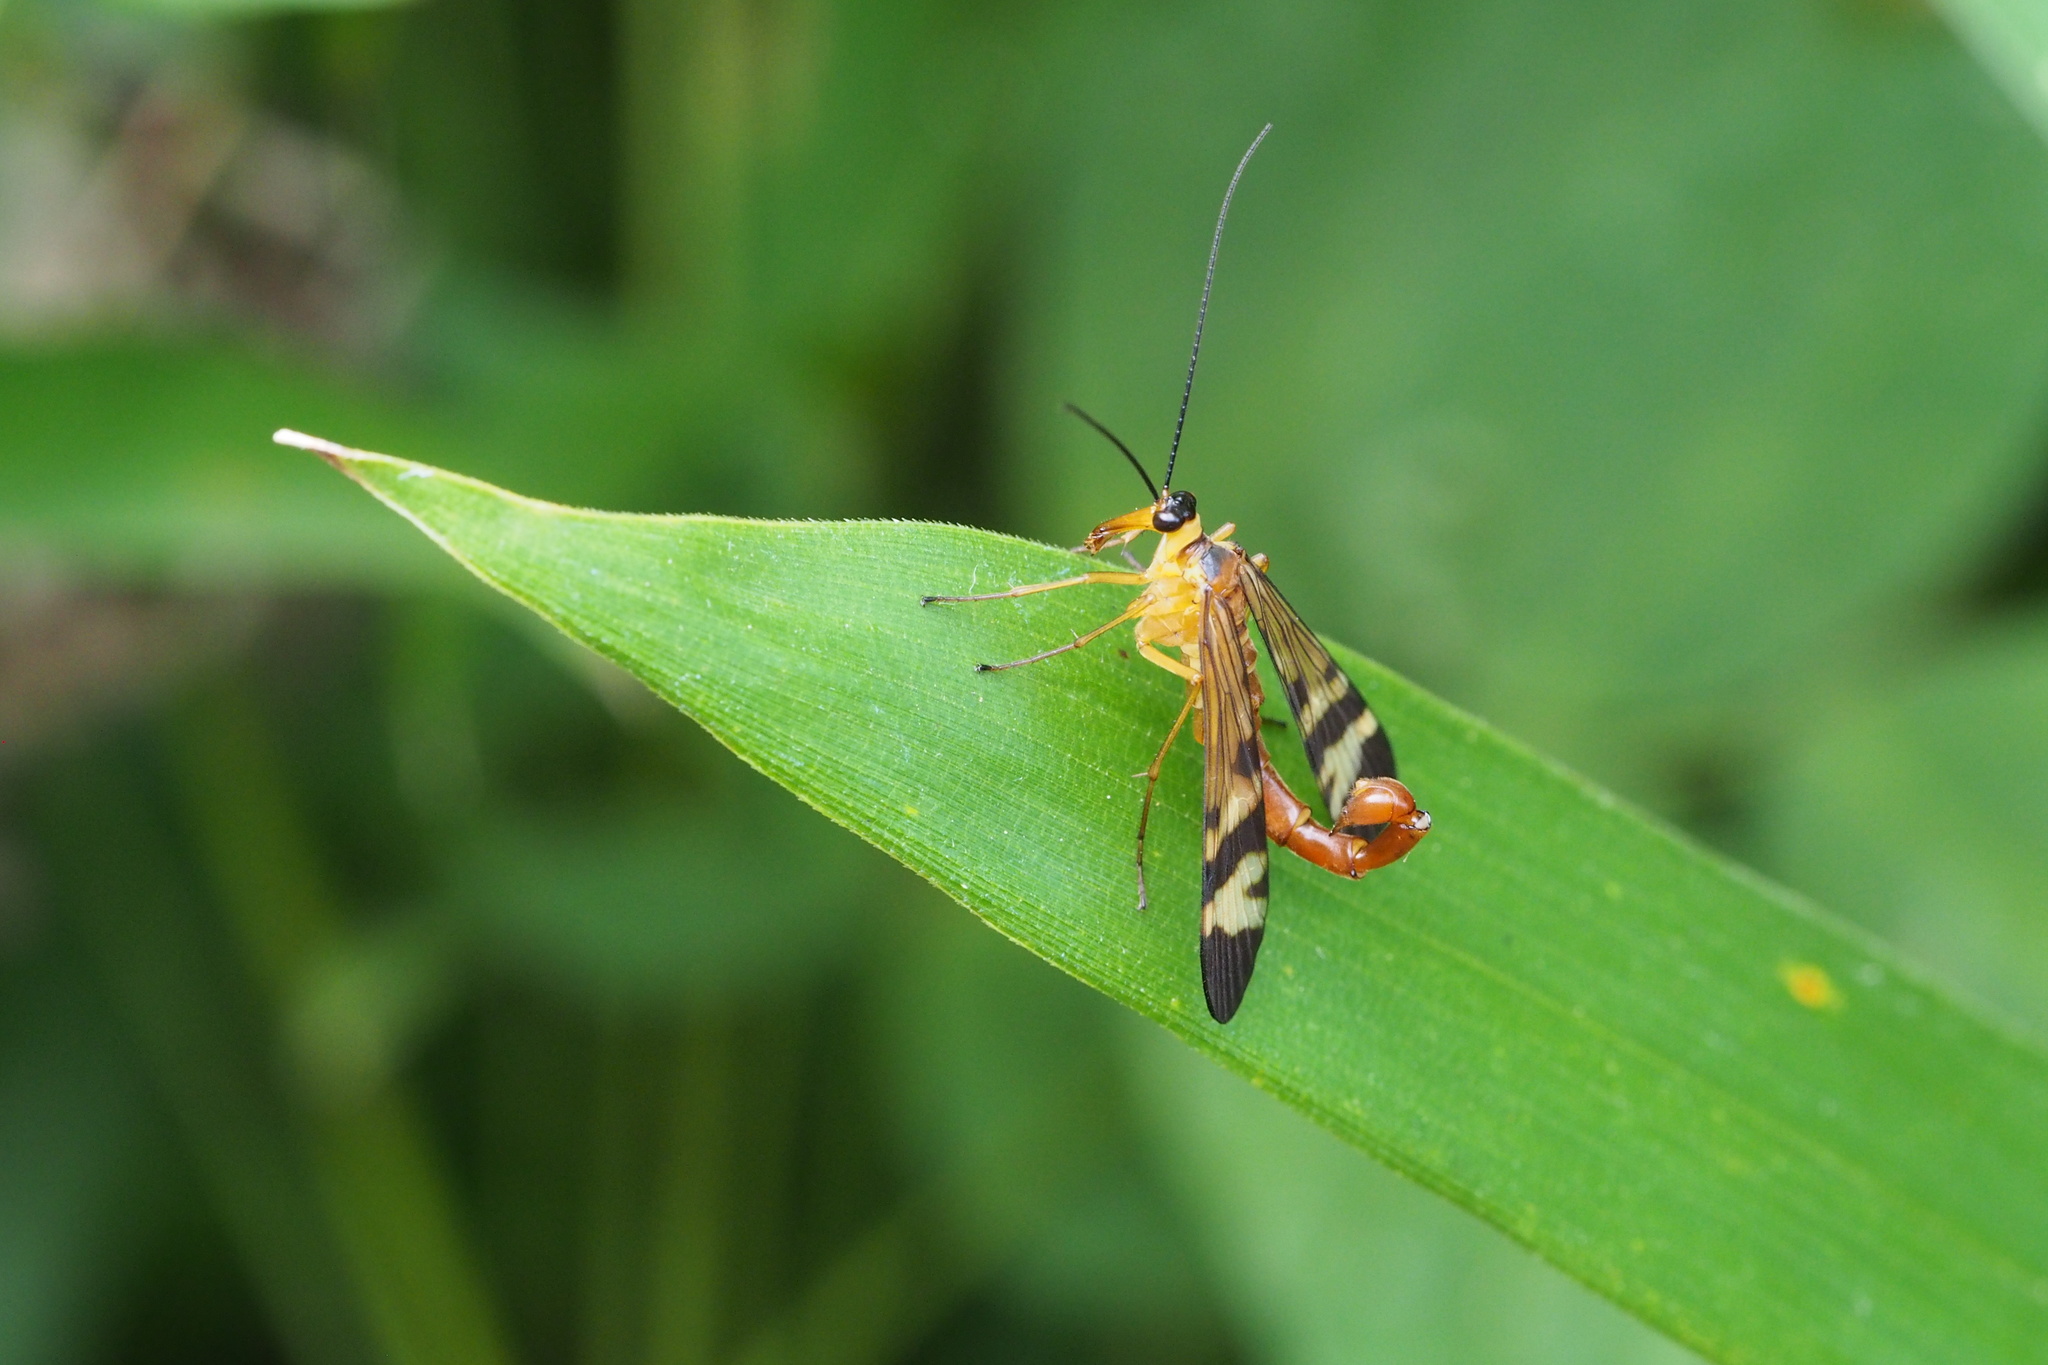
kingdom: Animalia
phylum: Arthropoda
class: Insecta
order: Mecoptera
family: Panorpidae
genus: Panorpa
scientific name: Panorpa japonica
